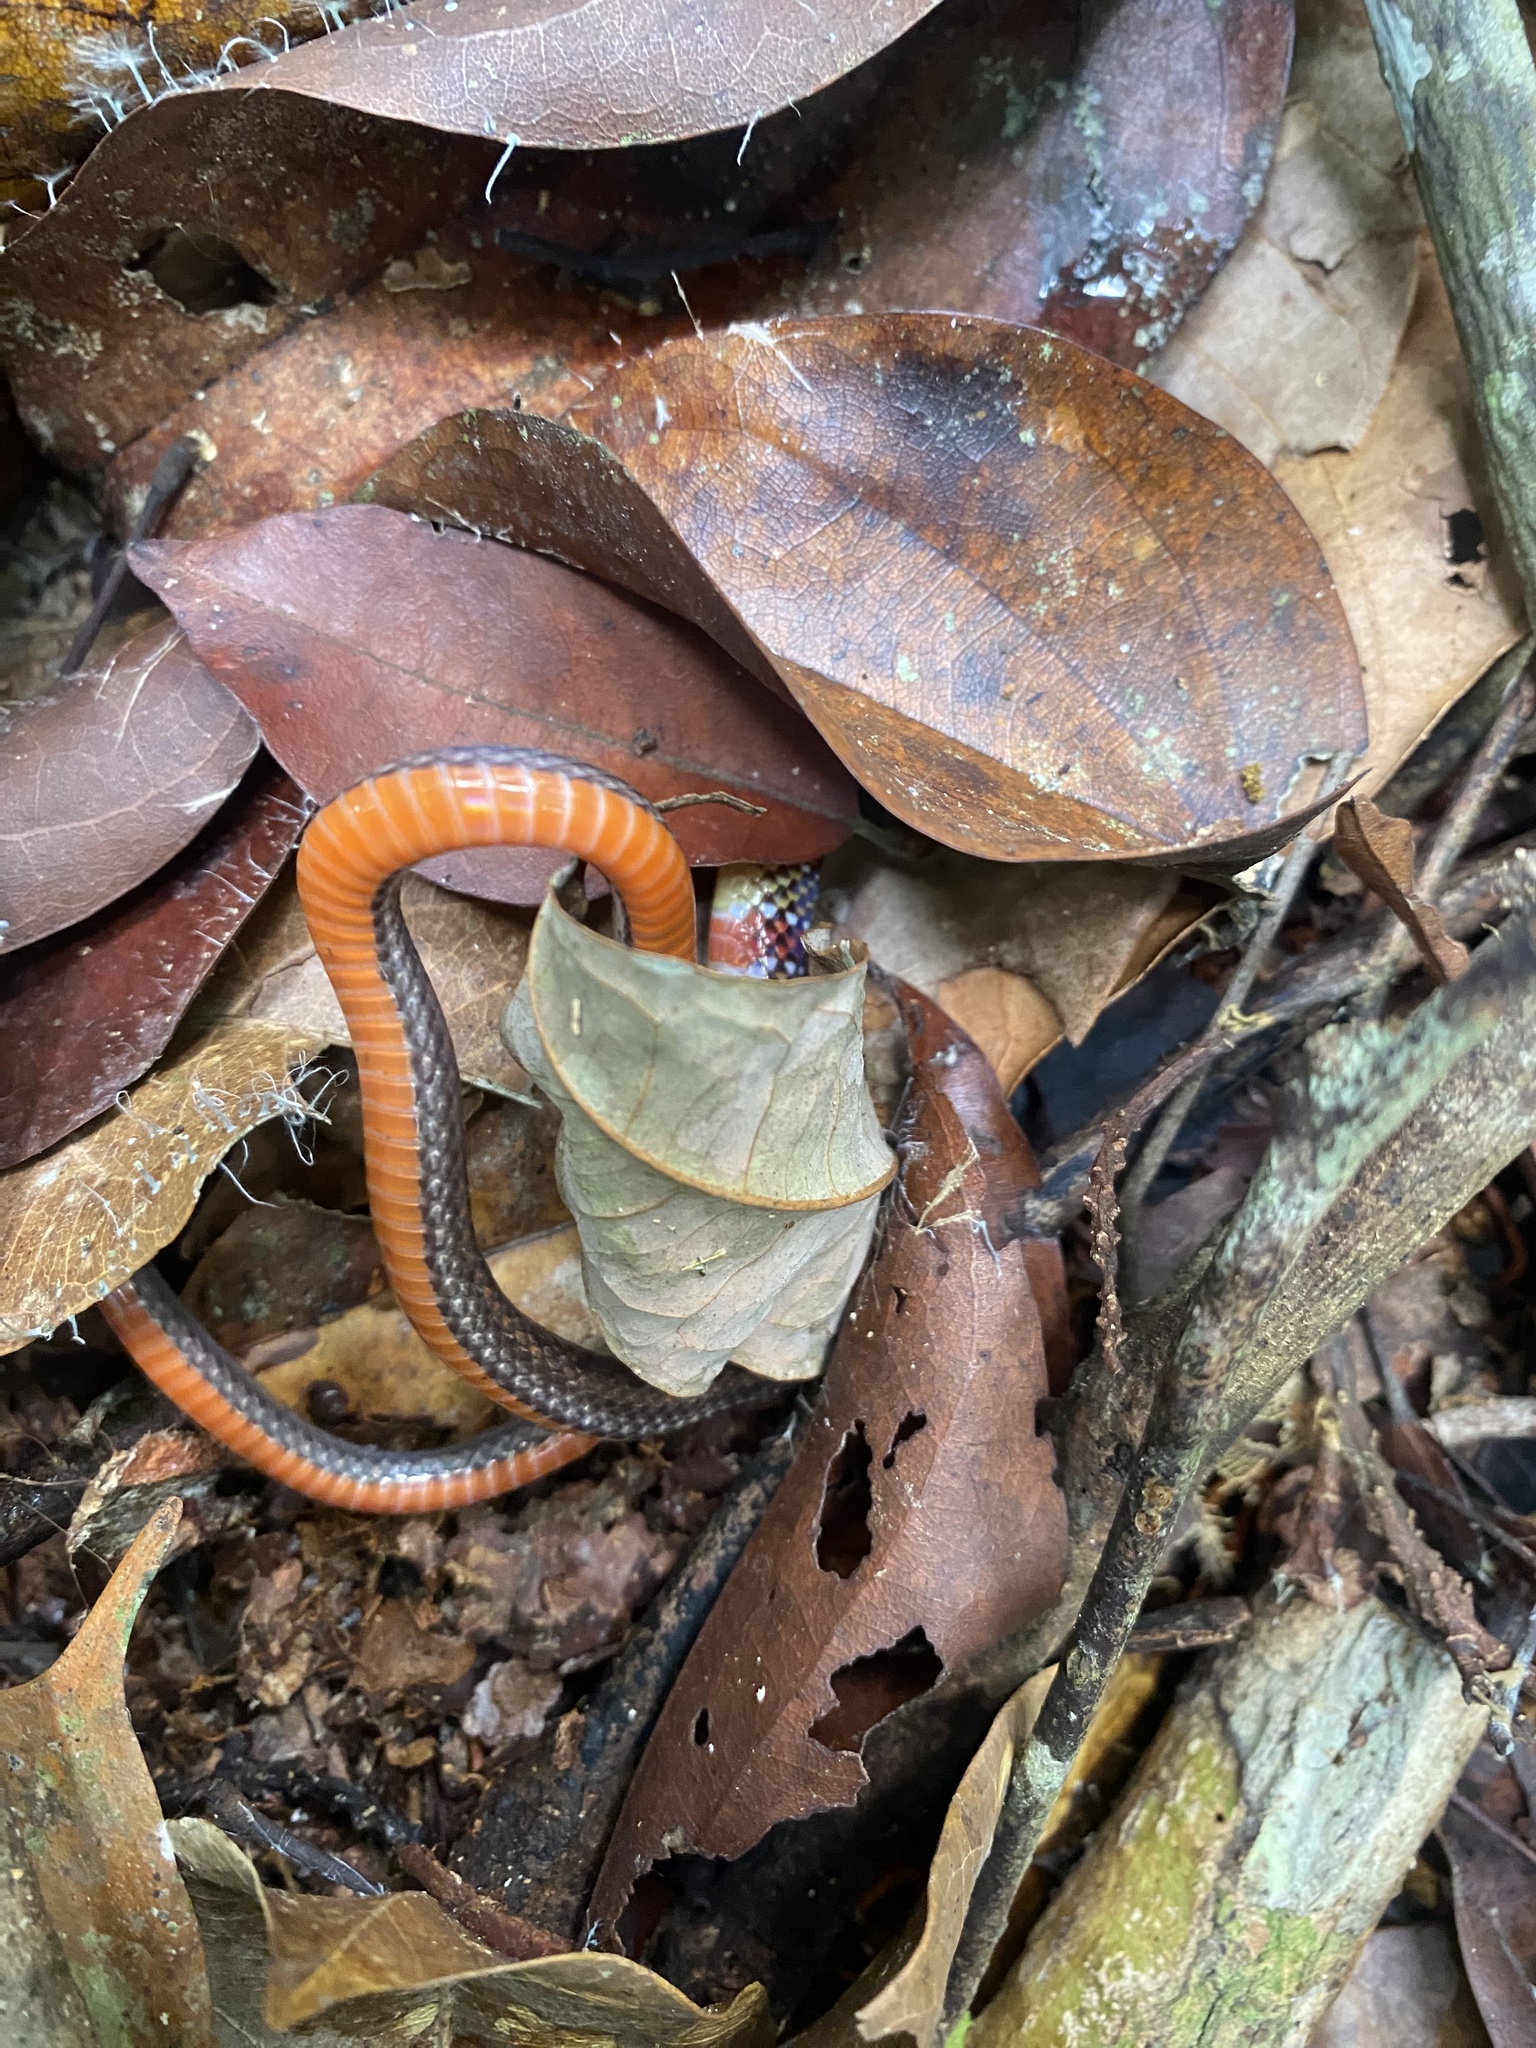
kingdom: Animalia
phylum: Chordata
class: Squamata
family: Colubridae
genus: Atractus
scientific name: Atractus collaris
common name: Collared ground snake
